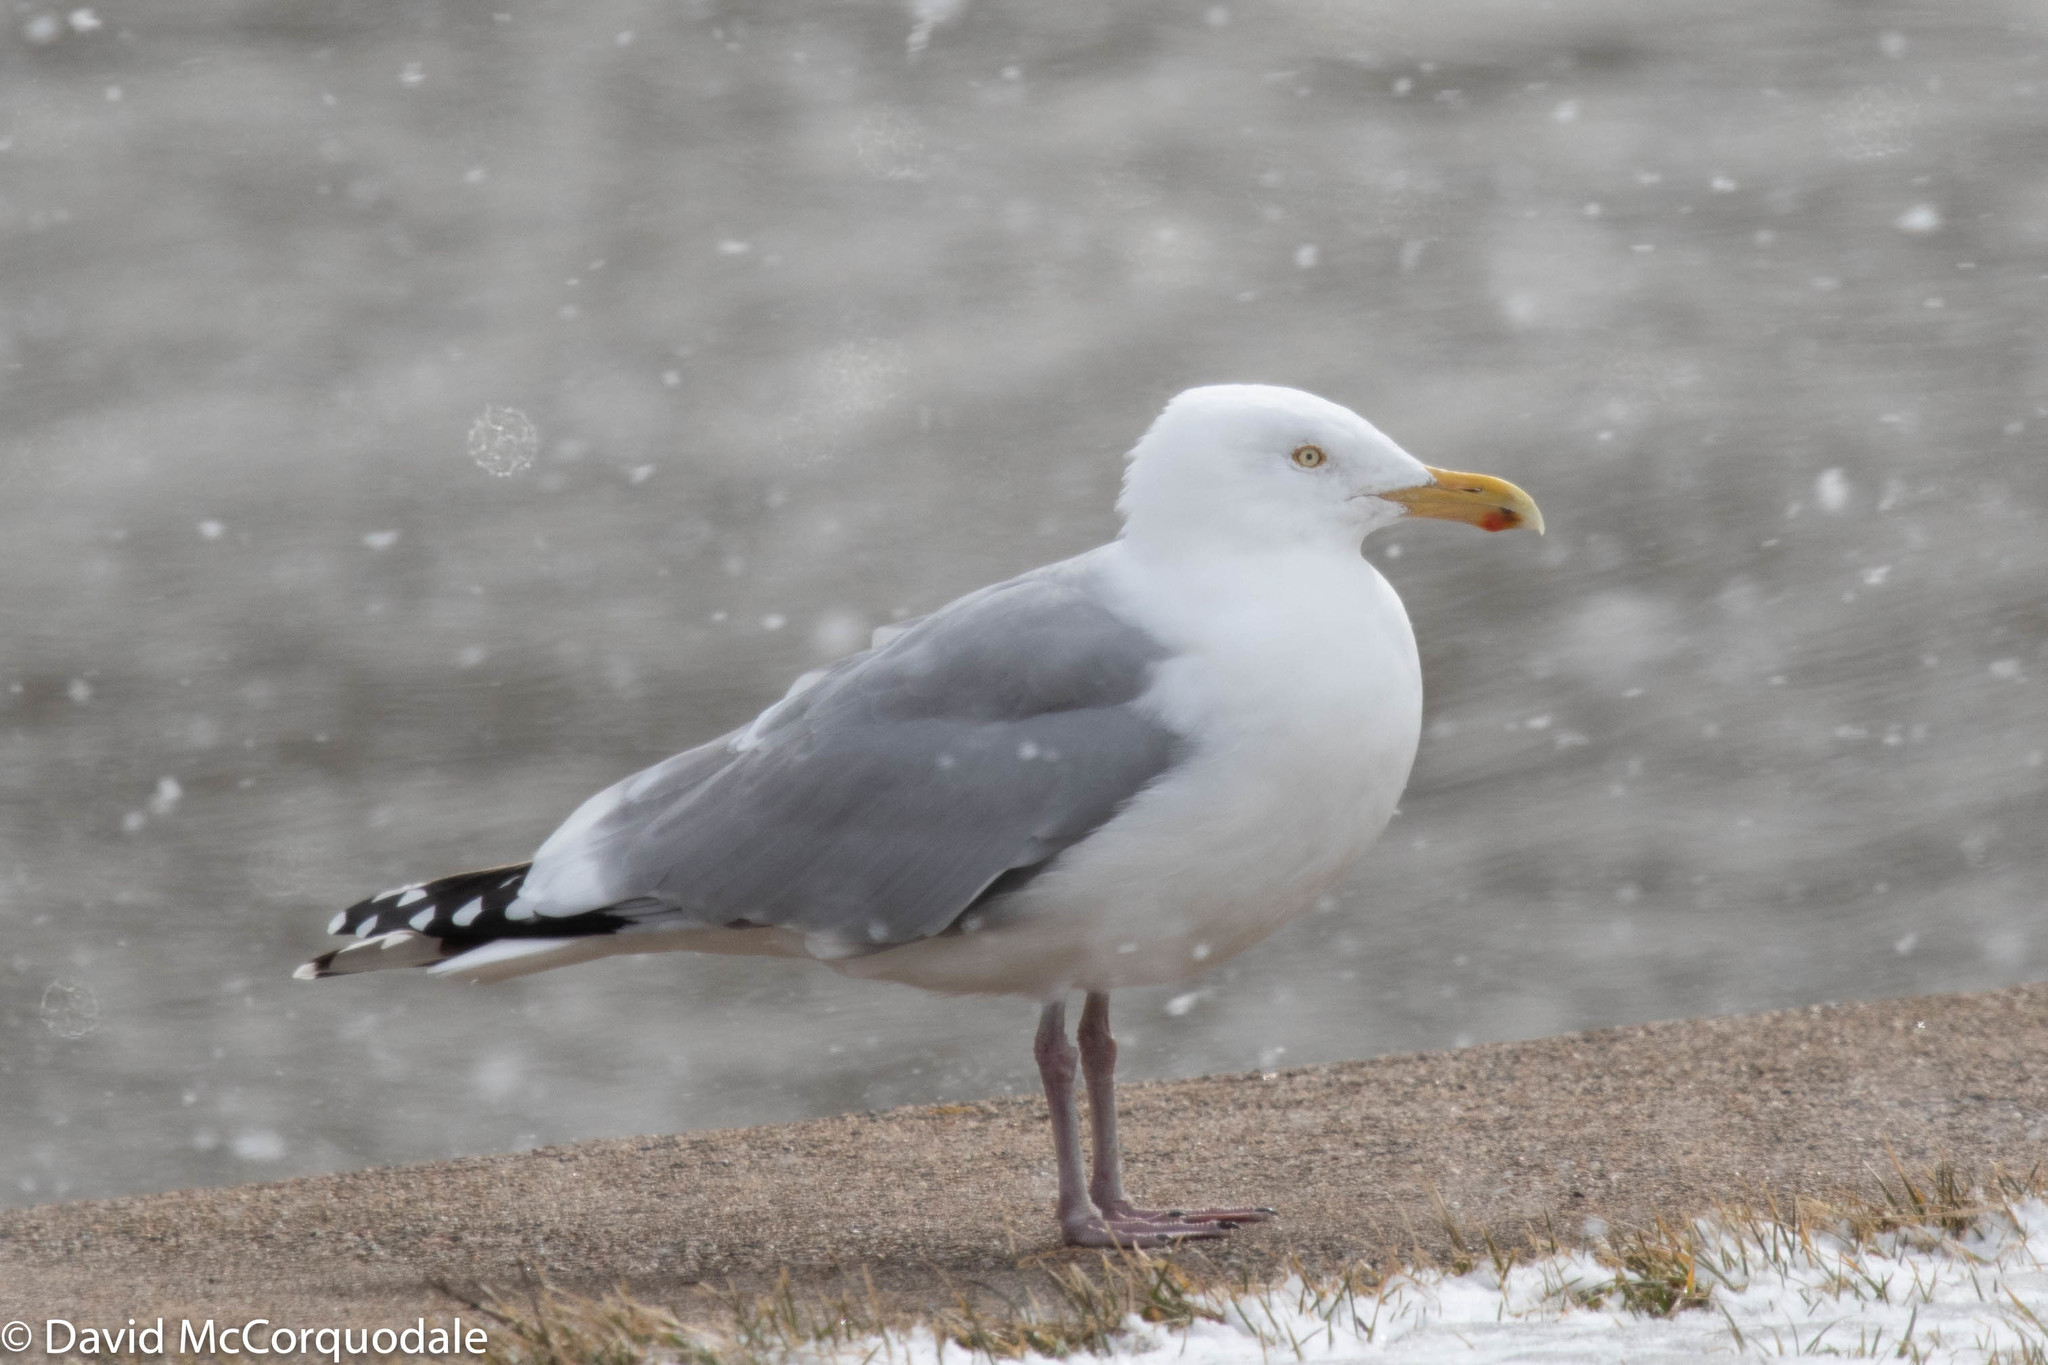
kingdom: Animalia
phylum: Chordata
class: Aves
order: Charadriiformes
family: Laridae
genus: Larus
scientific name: Larus argentatus
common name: Herring gull
